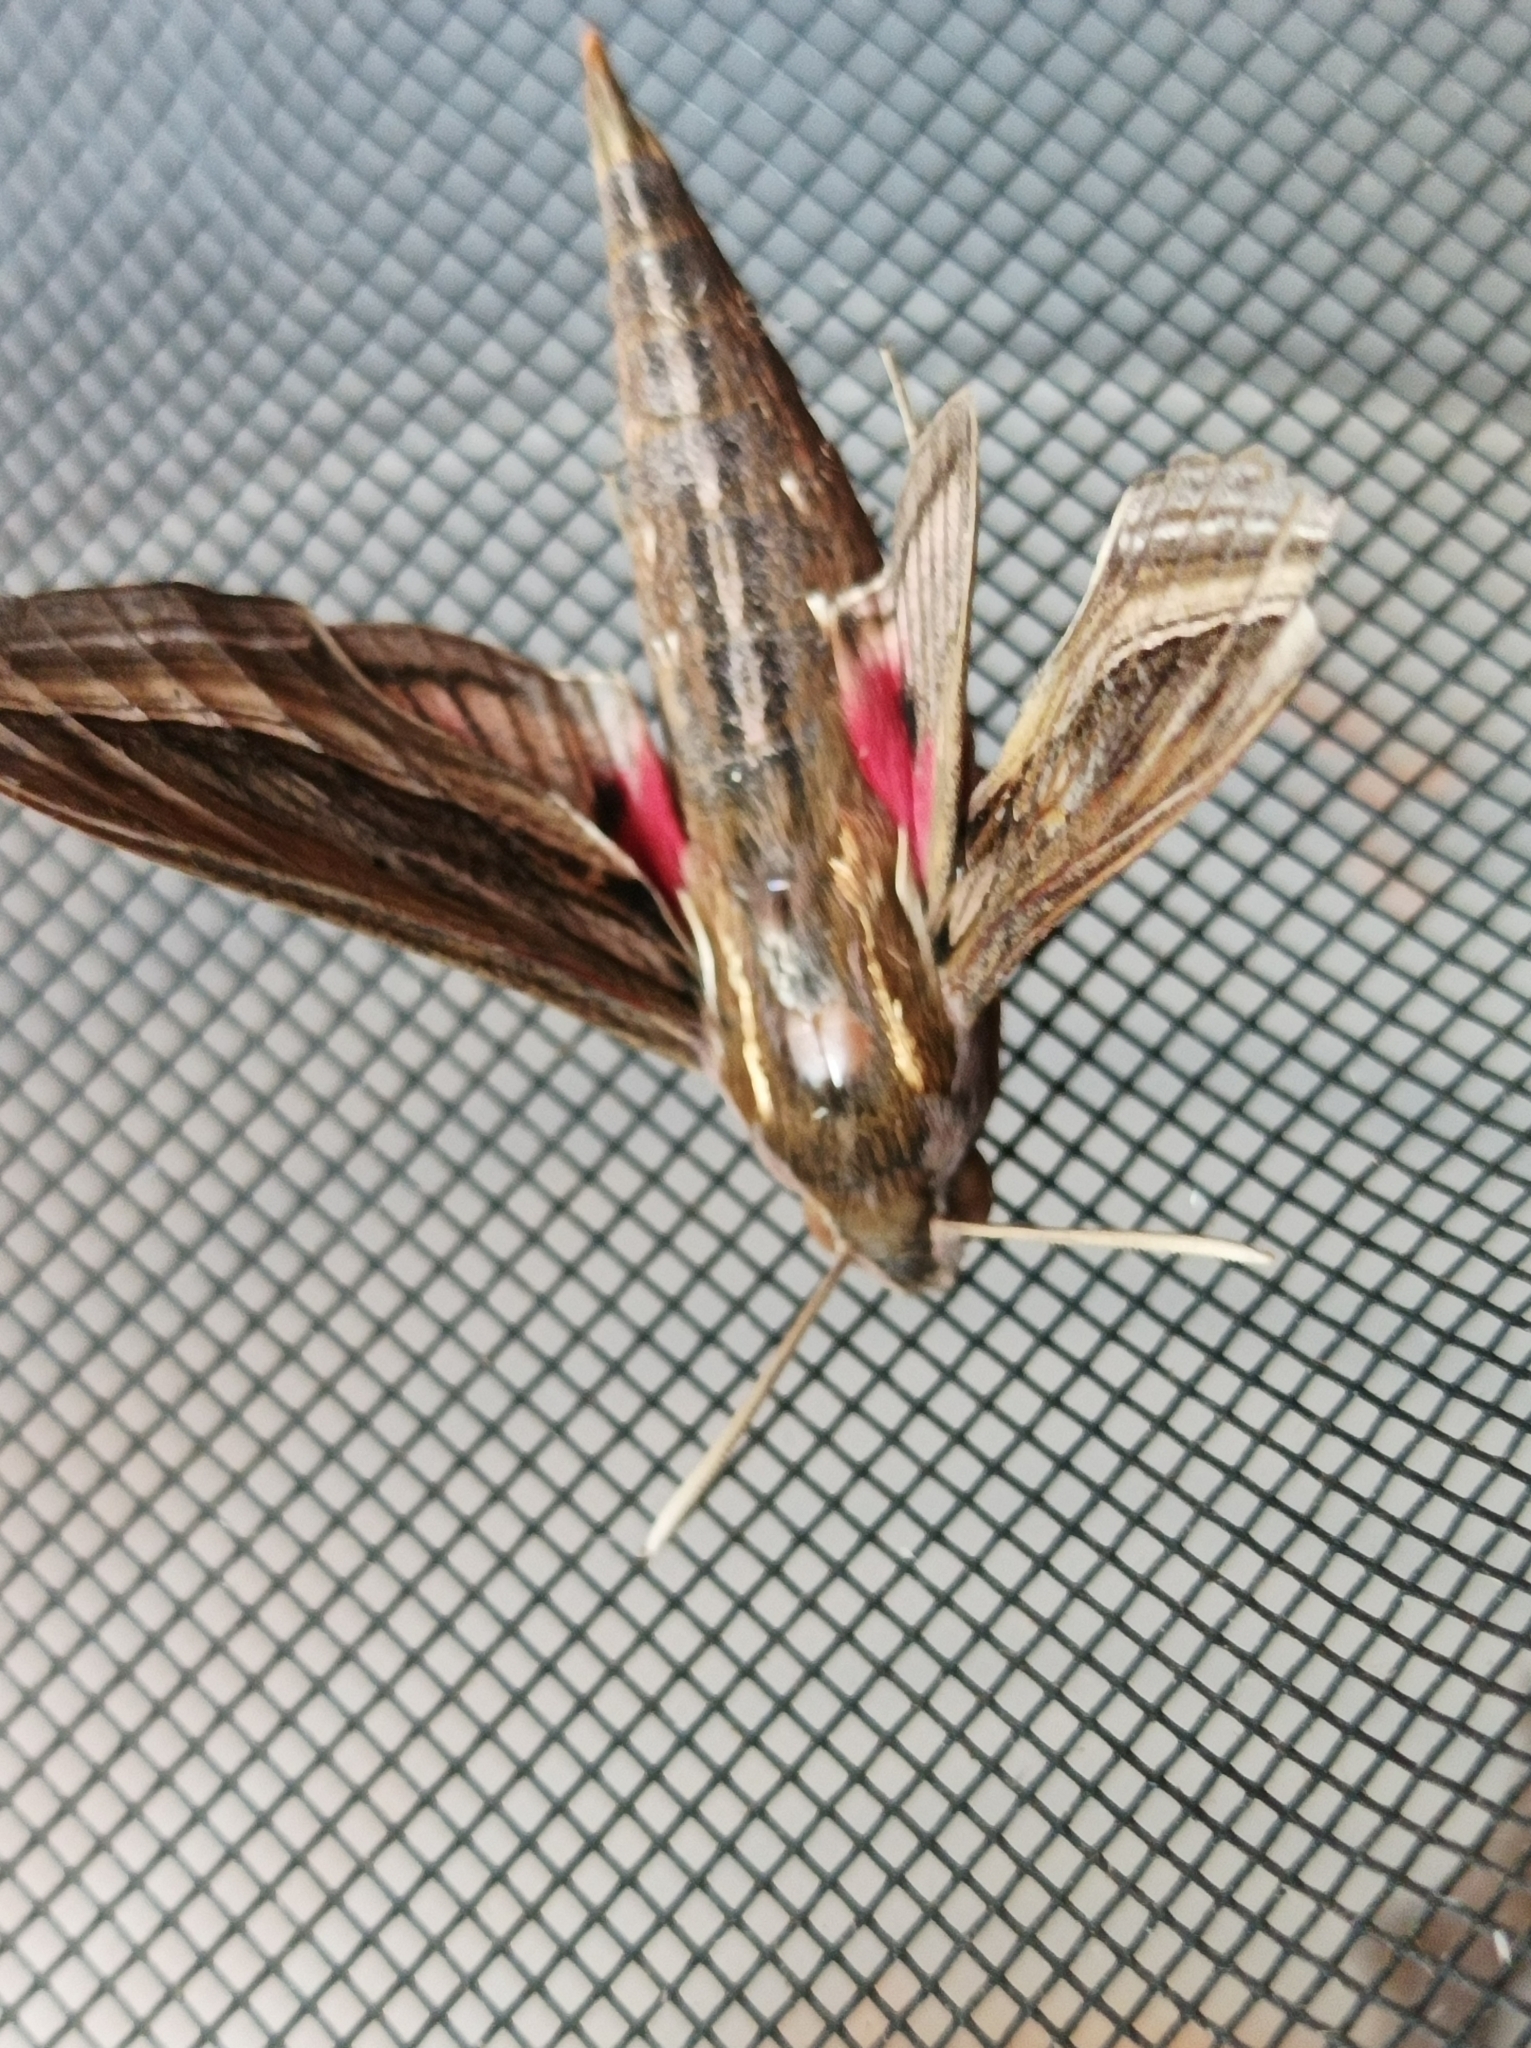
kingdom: Animalia
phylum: Arthropoda
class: Insecta
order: Lepidoptera
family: Sphingidae
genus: Hippotion
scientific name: Hippotion celerio
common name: Silver-striped hawk-moth
